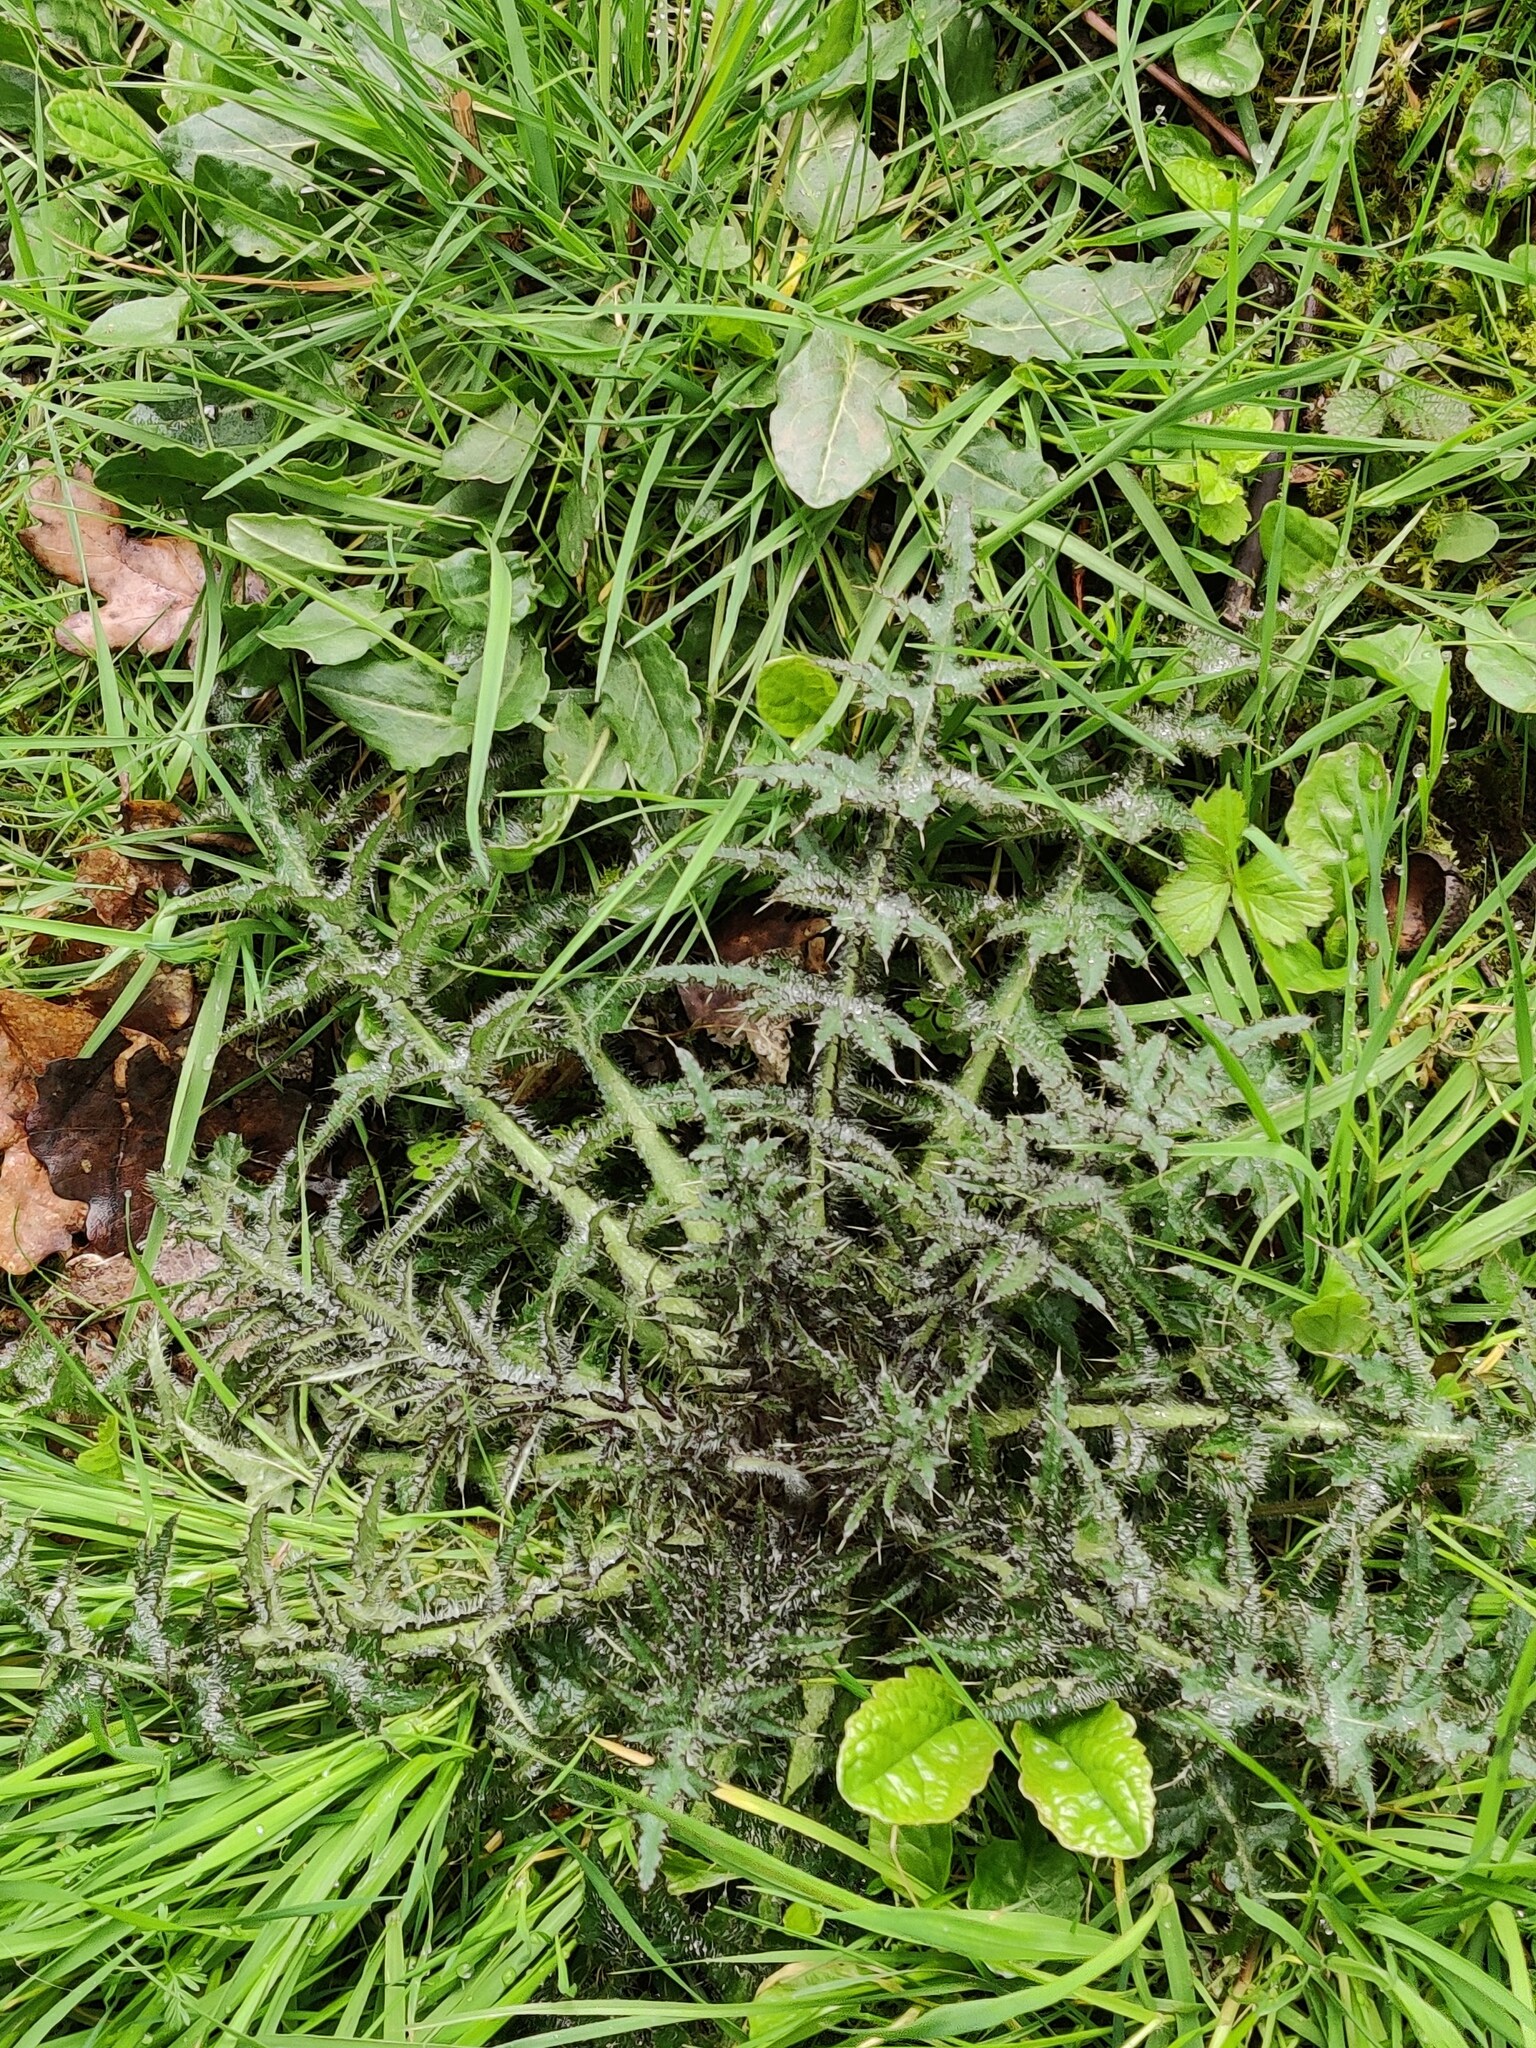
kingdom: Plantae
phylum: Tracheophyta
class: Magnoliopsida
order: Asterales
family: Asteraceae
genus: Cirsium
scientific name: Cirsium palustre
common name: Marsh thistle
